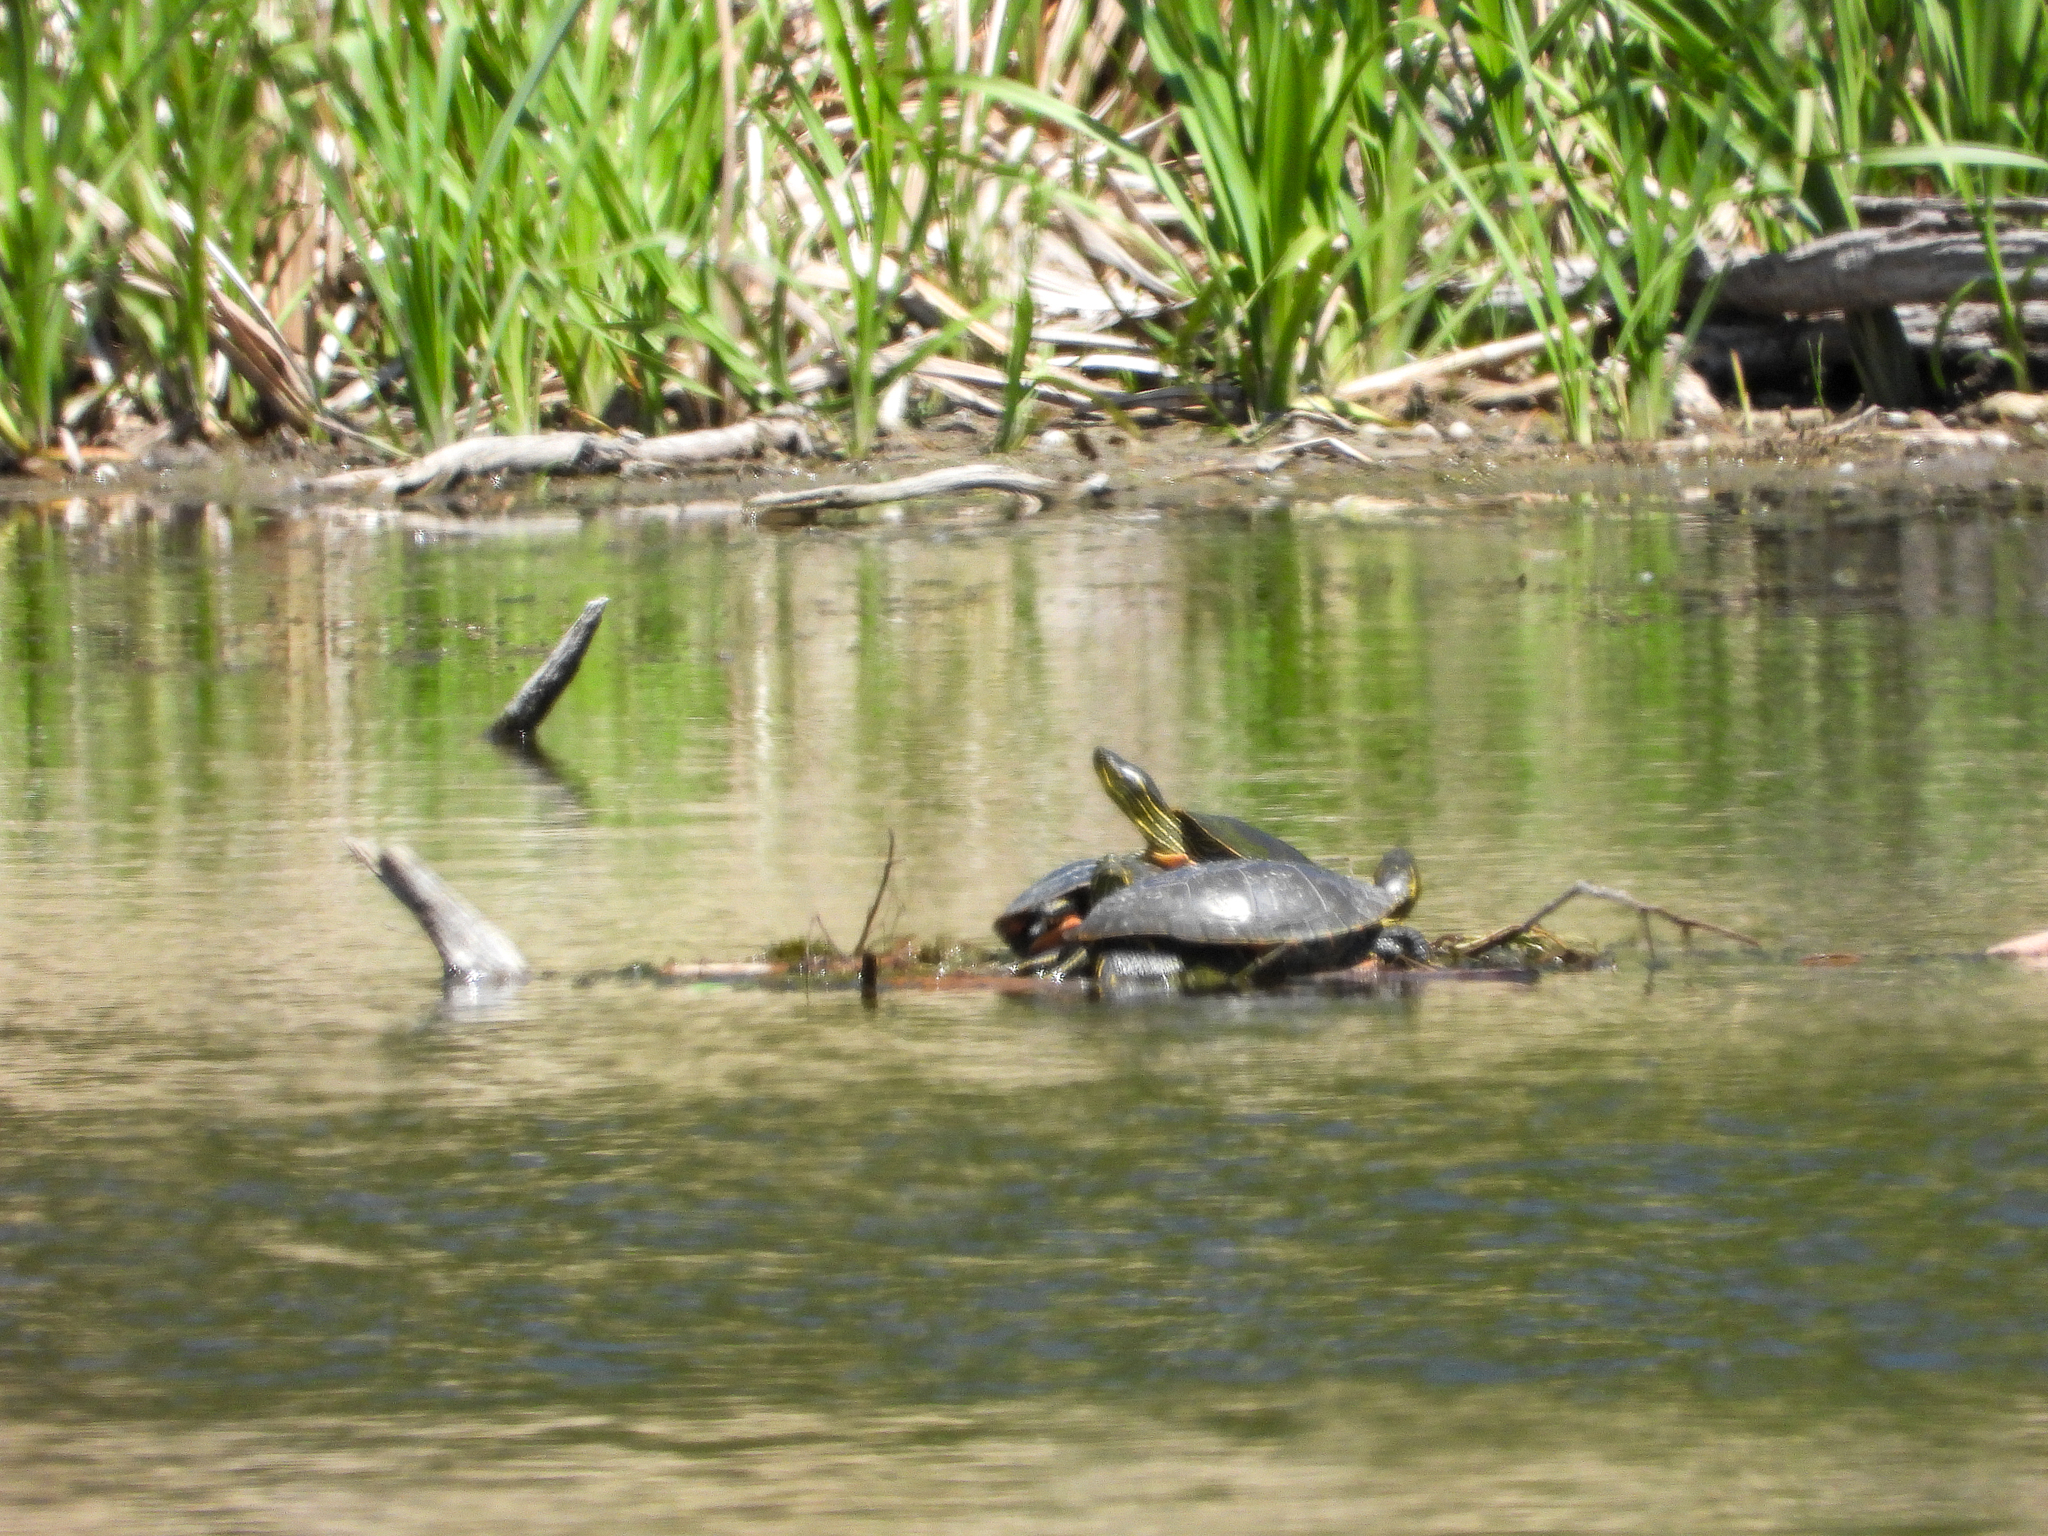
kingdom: Animalia
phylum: Chordata
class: Testudines
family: Emydidae
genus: Chrysemys
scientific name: Chrysemys picta
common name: Painted turtle
